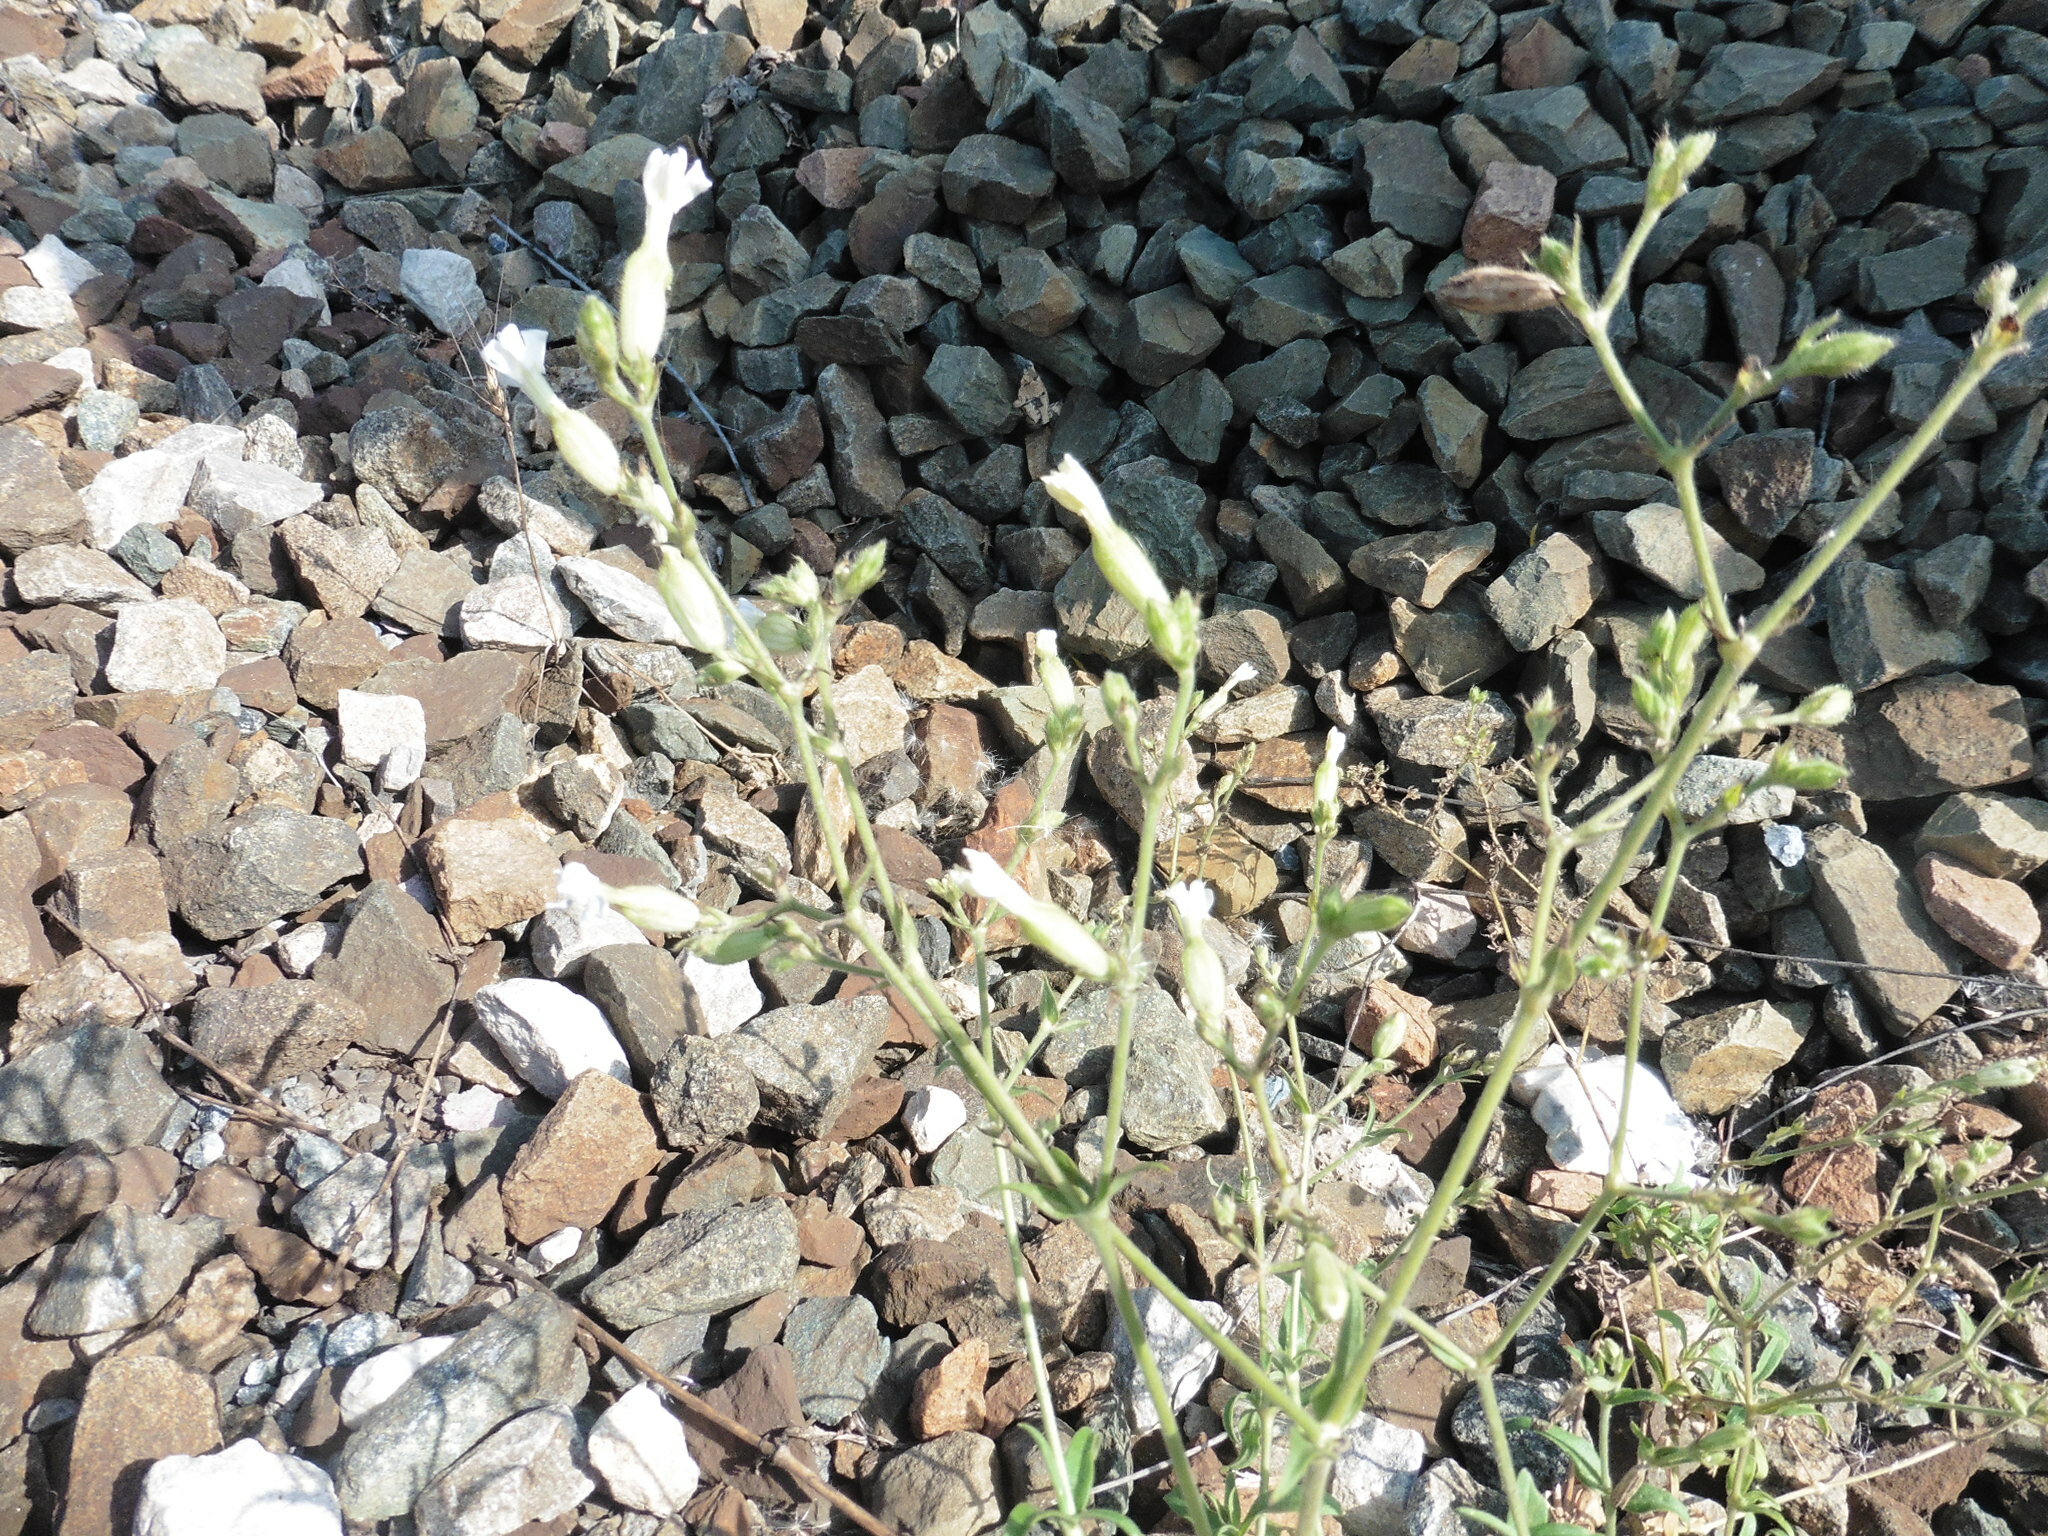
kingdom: Plantae
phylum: Tracheophyta
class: Magnoliopsida
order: Caryophyllales
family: Caryophyllaceae
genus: Silene
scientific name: Silene latifolia
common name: White campion
